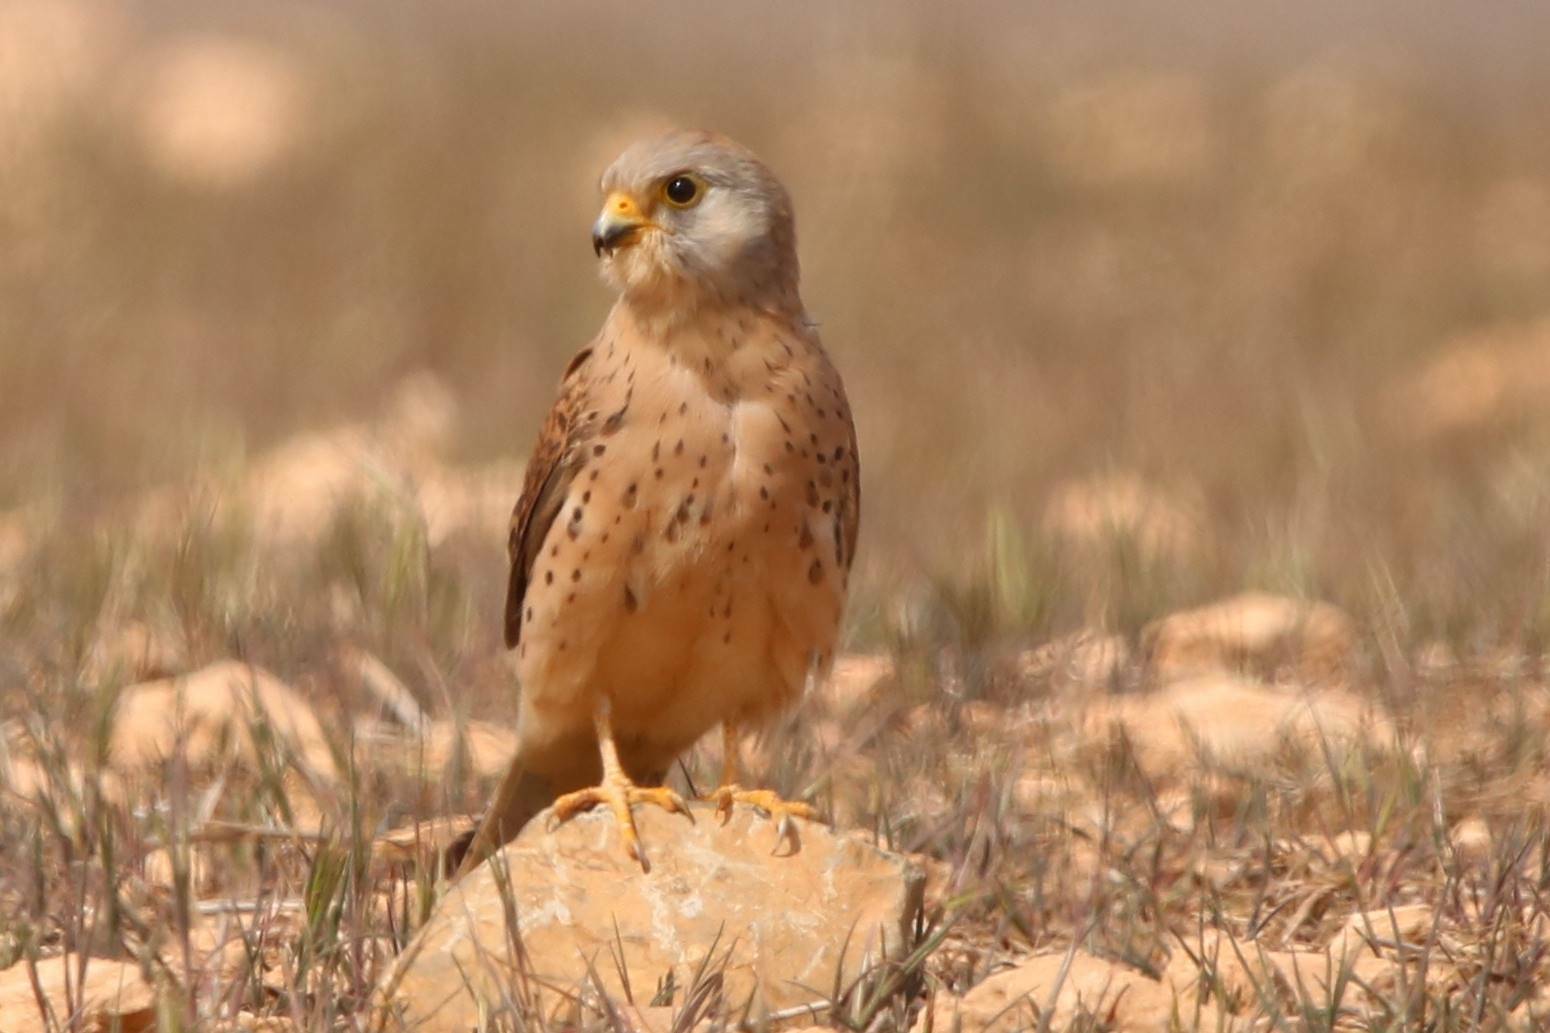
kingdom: Animalia
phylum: Chordata
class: Aves
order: Falconiformes
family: Falconidae
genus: Falco
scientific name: Falco naumanni
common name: Lesser kestrel
